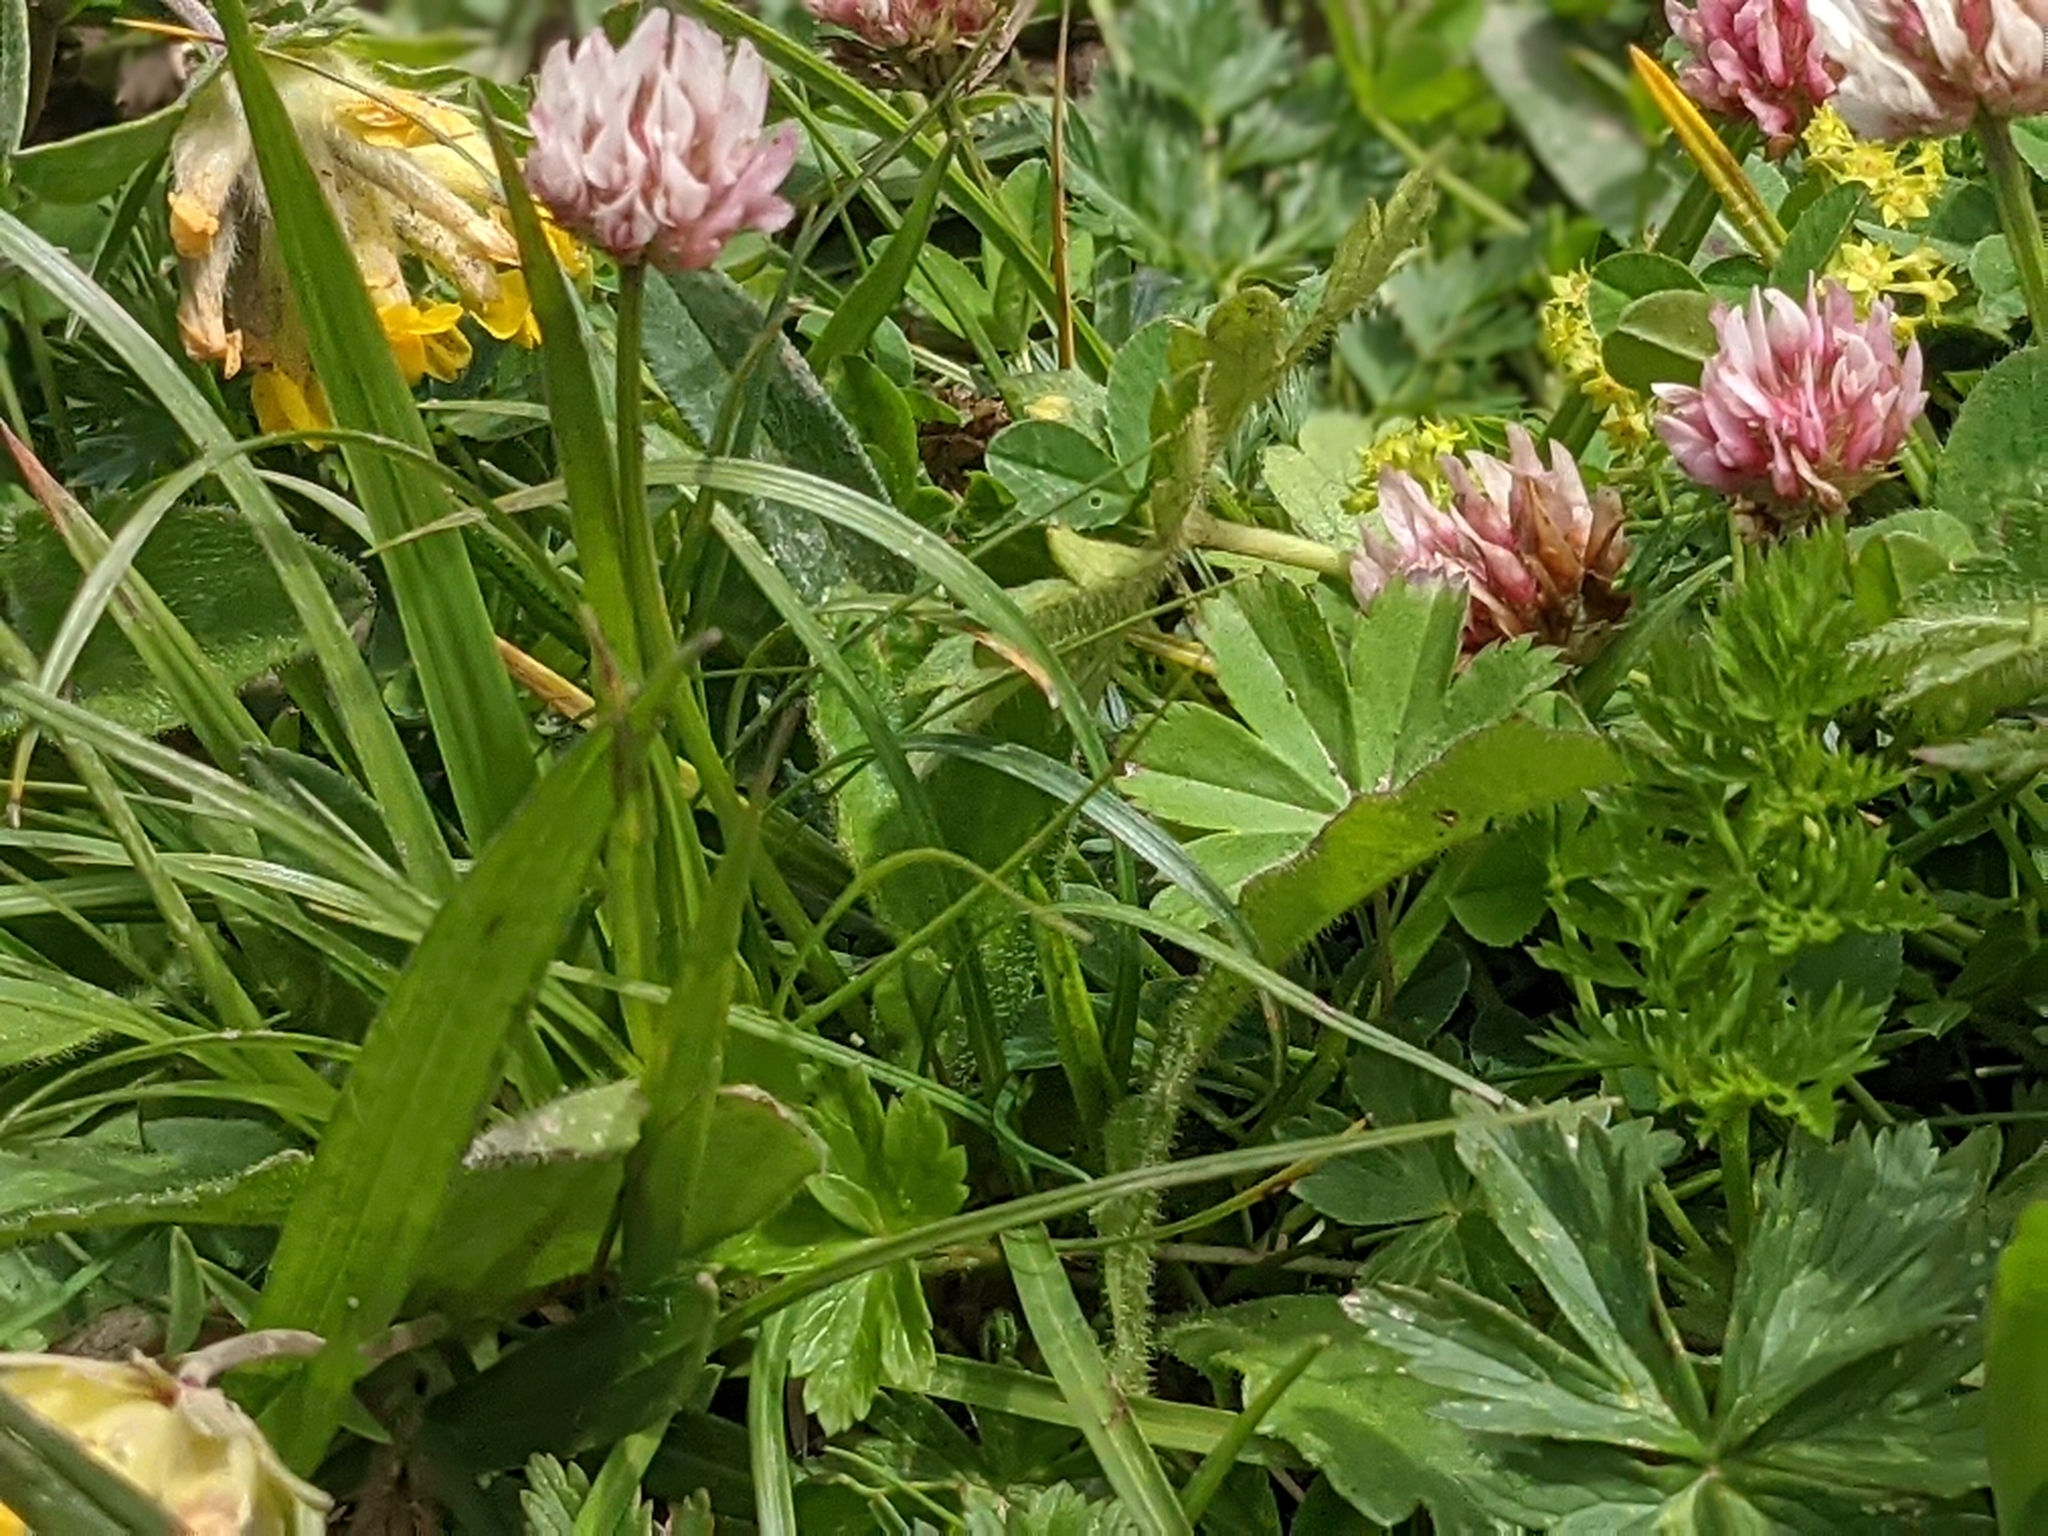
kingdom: Plantae
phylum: Tracheophyta
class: Magnoliopsida
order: Fabales
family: Fabaceae
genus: Trifolium
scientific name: Trifolium thalii
